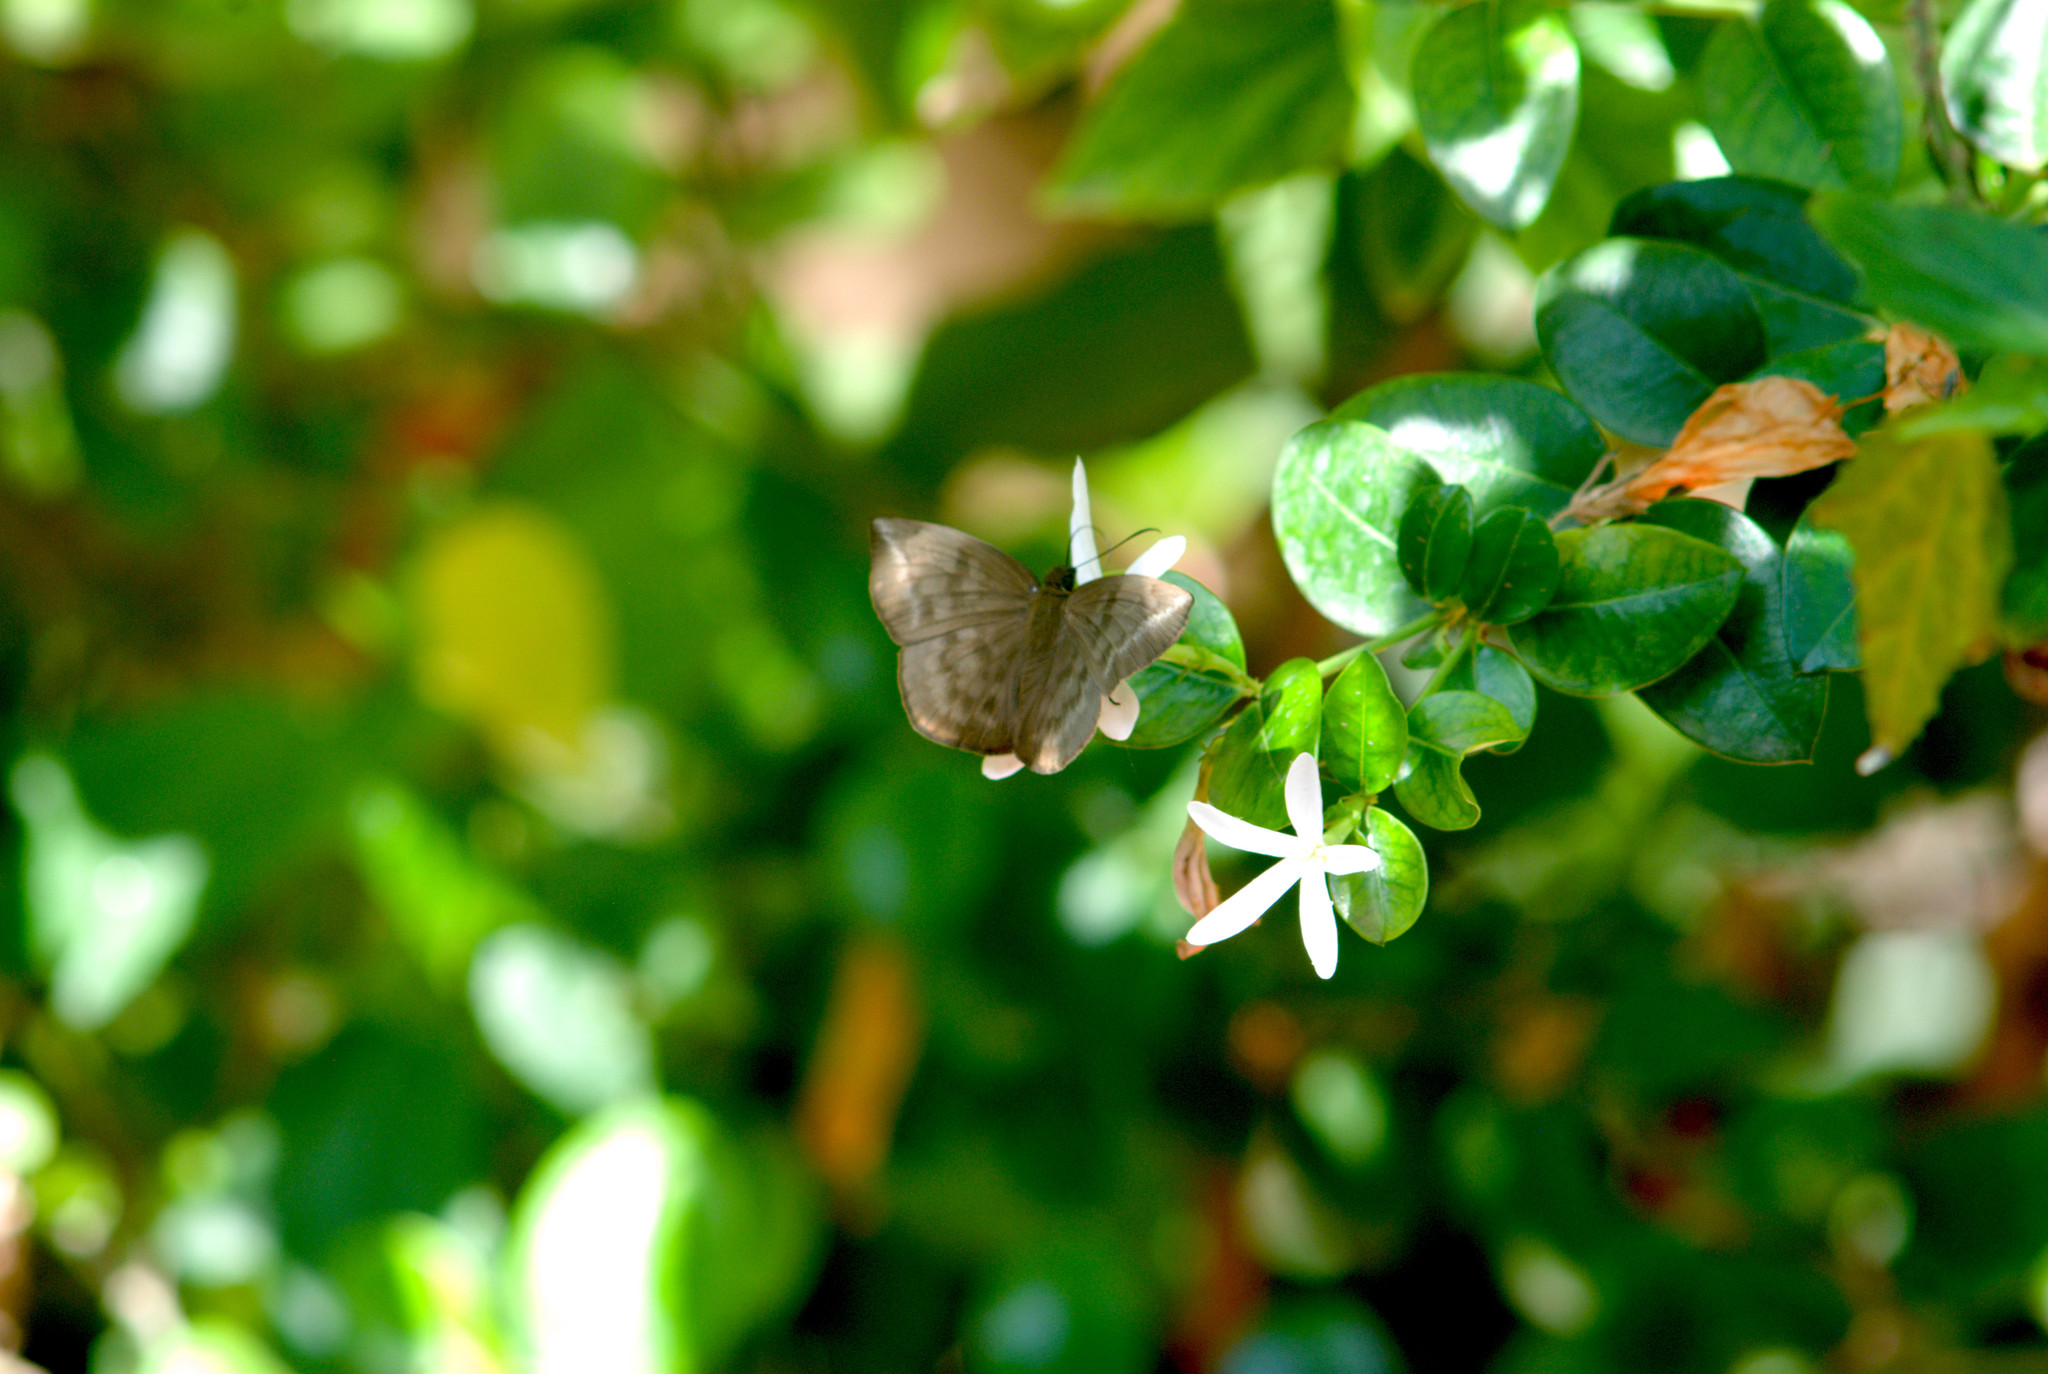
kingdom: Animalia
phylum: Arthropoda
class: Insecta
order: Lepidoptera
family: Hesperiidae
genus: Achlyodes
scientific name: Achlyodes pallida
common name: Pale sicklewing
